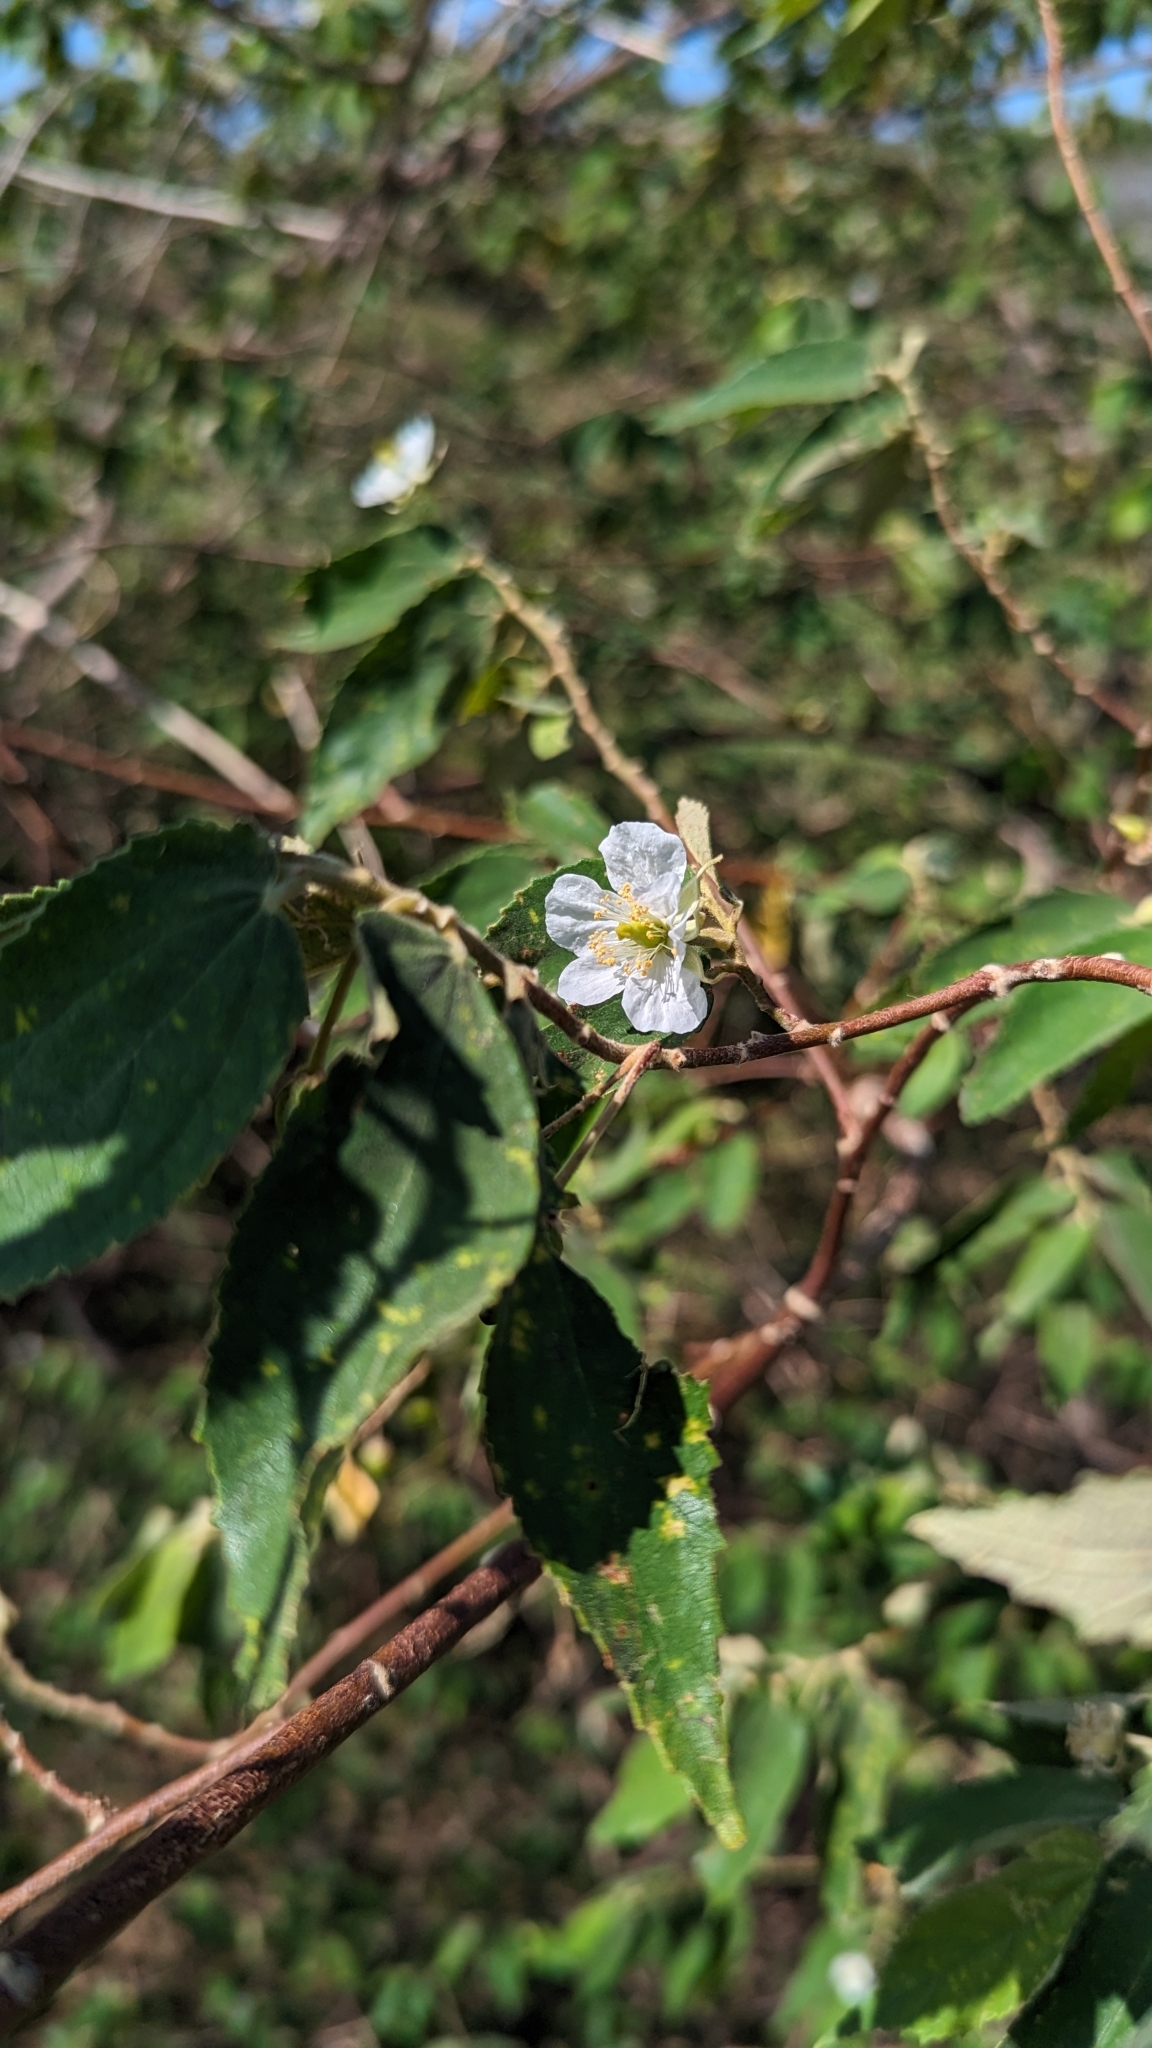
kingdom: Plantae
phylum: Tracheophyta
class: Magnoliopsida
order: Malvales
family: Muntingiaceae
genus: Muntingia
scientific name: Muntingia calabura
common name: Strawberrytree
